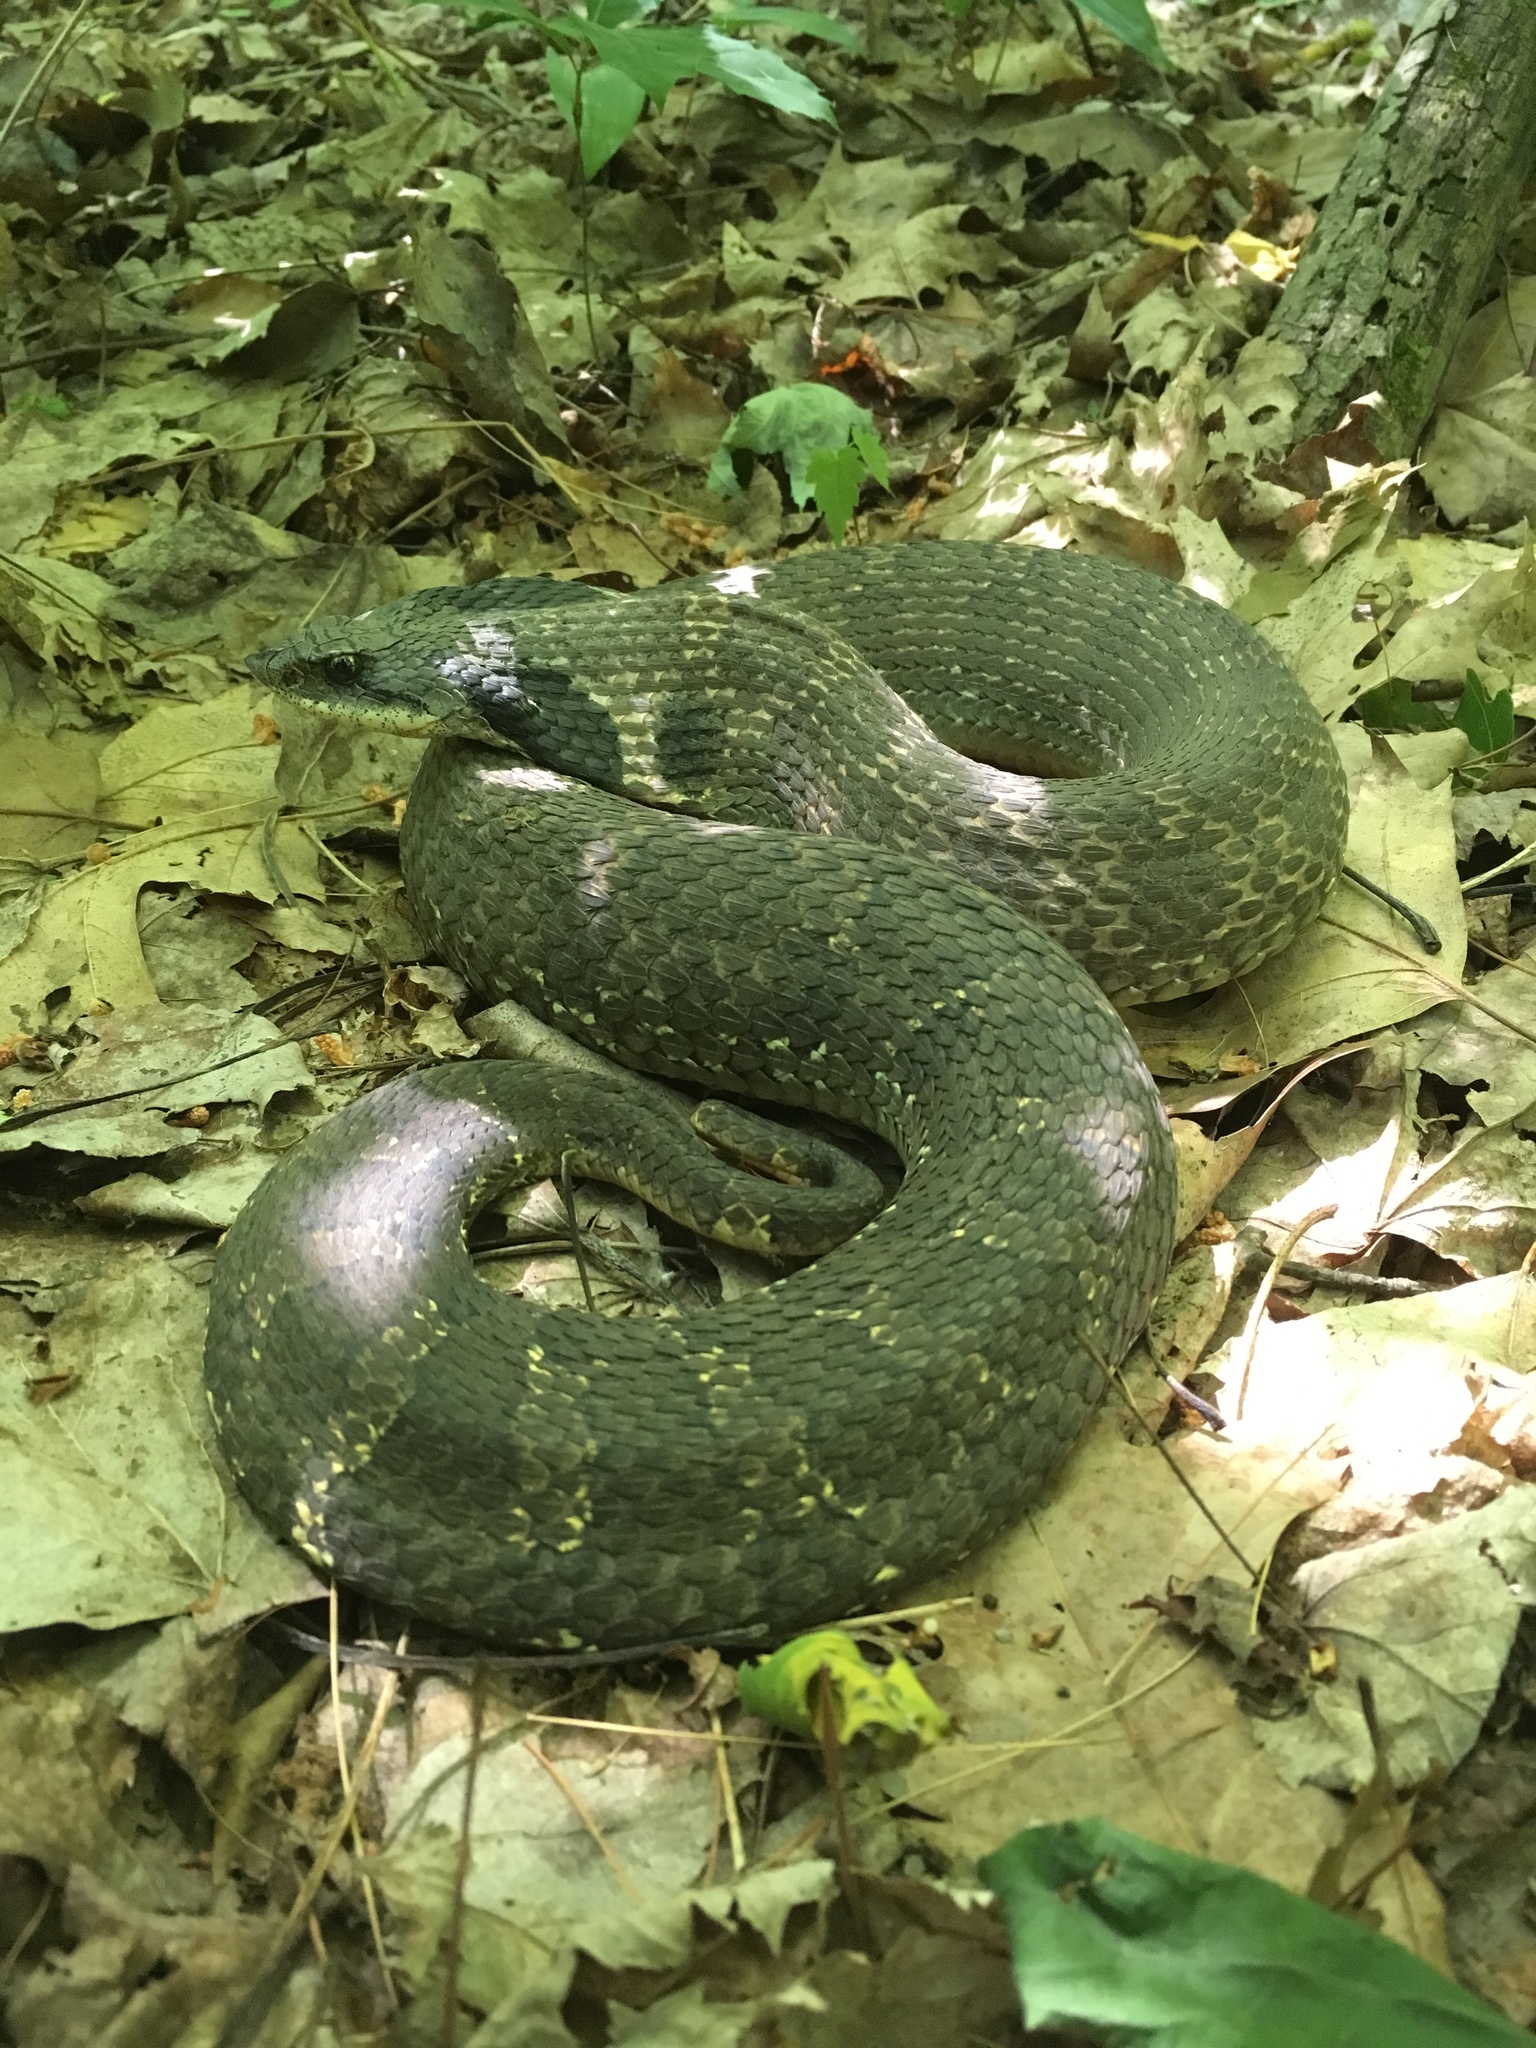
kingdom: Animalia
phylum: Chordata
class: Squamata
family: Colubridae
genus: Heterodon
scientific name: Heterodon platirhinos
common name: Eastern hognose snake
